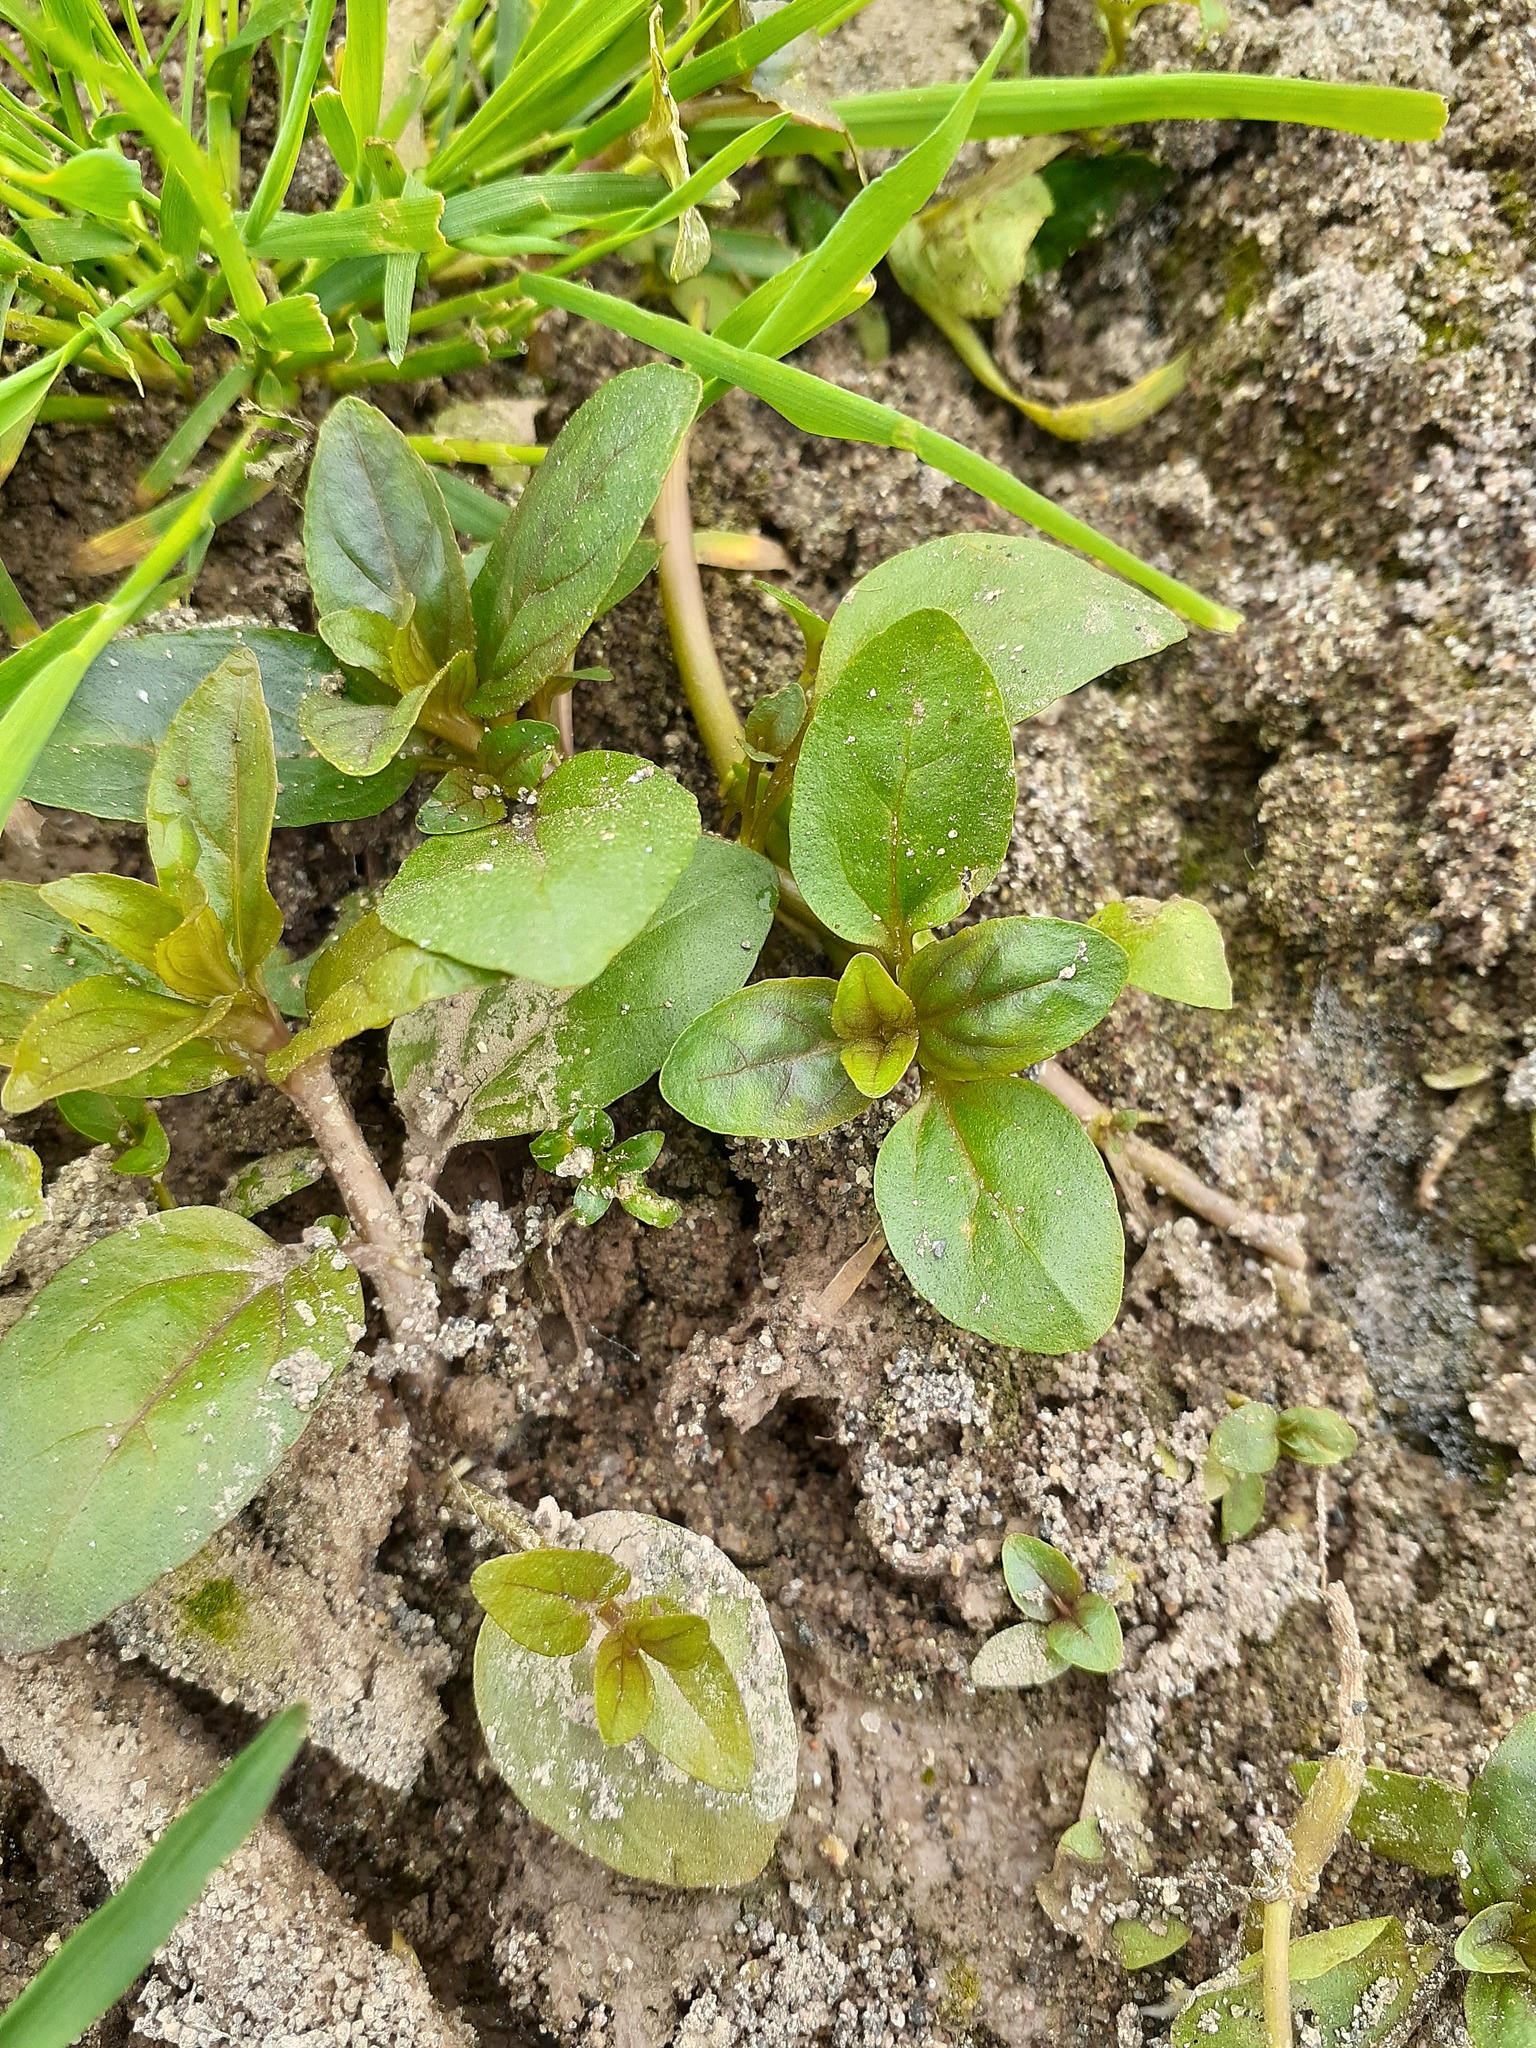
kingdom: Plantae
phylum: Tracheophyta
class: Magnoliopsida
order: Lamiales
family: Plantaginaceae
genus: Veronica
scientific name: Veronica anagallis-aquatica
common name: Water speedwell
